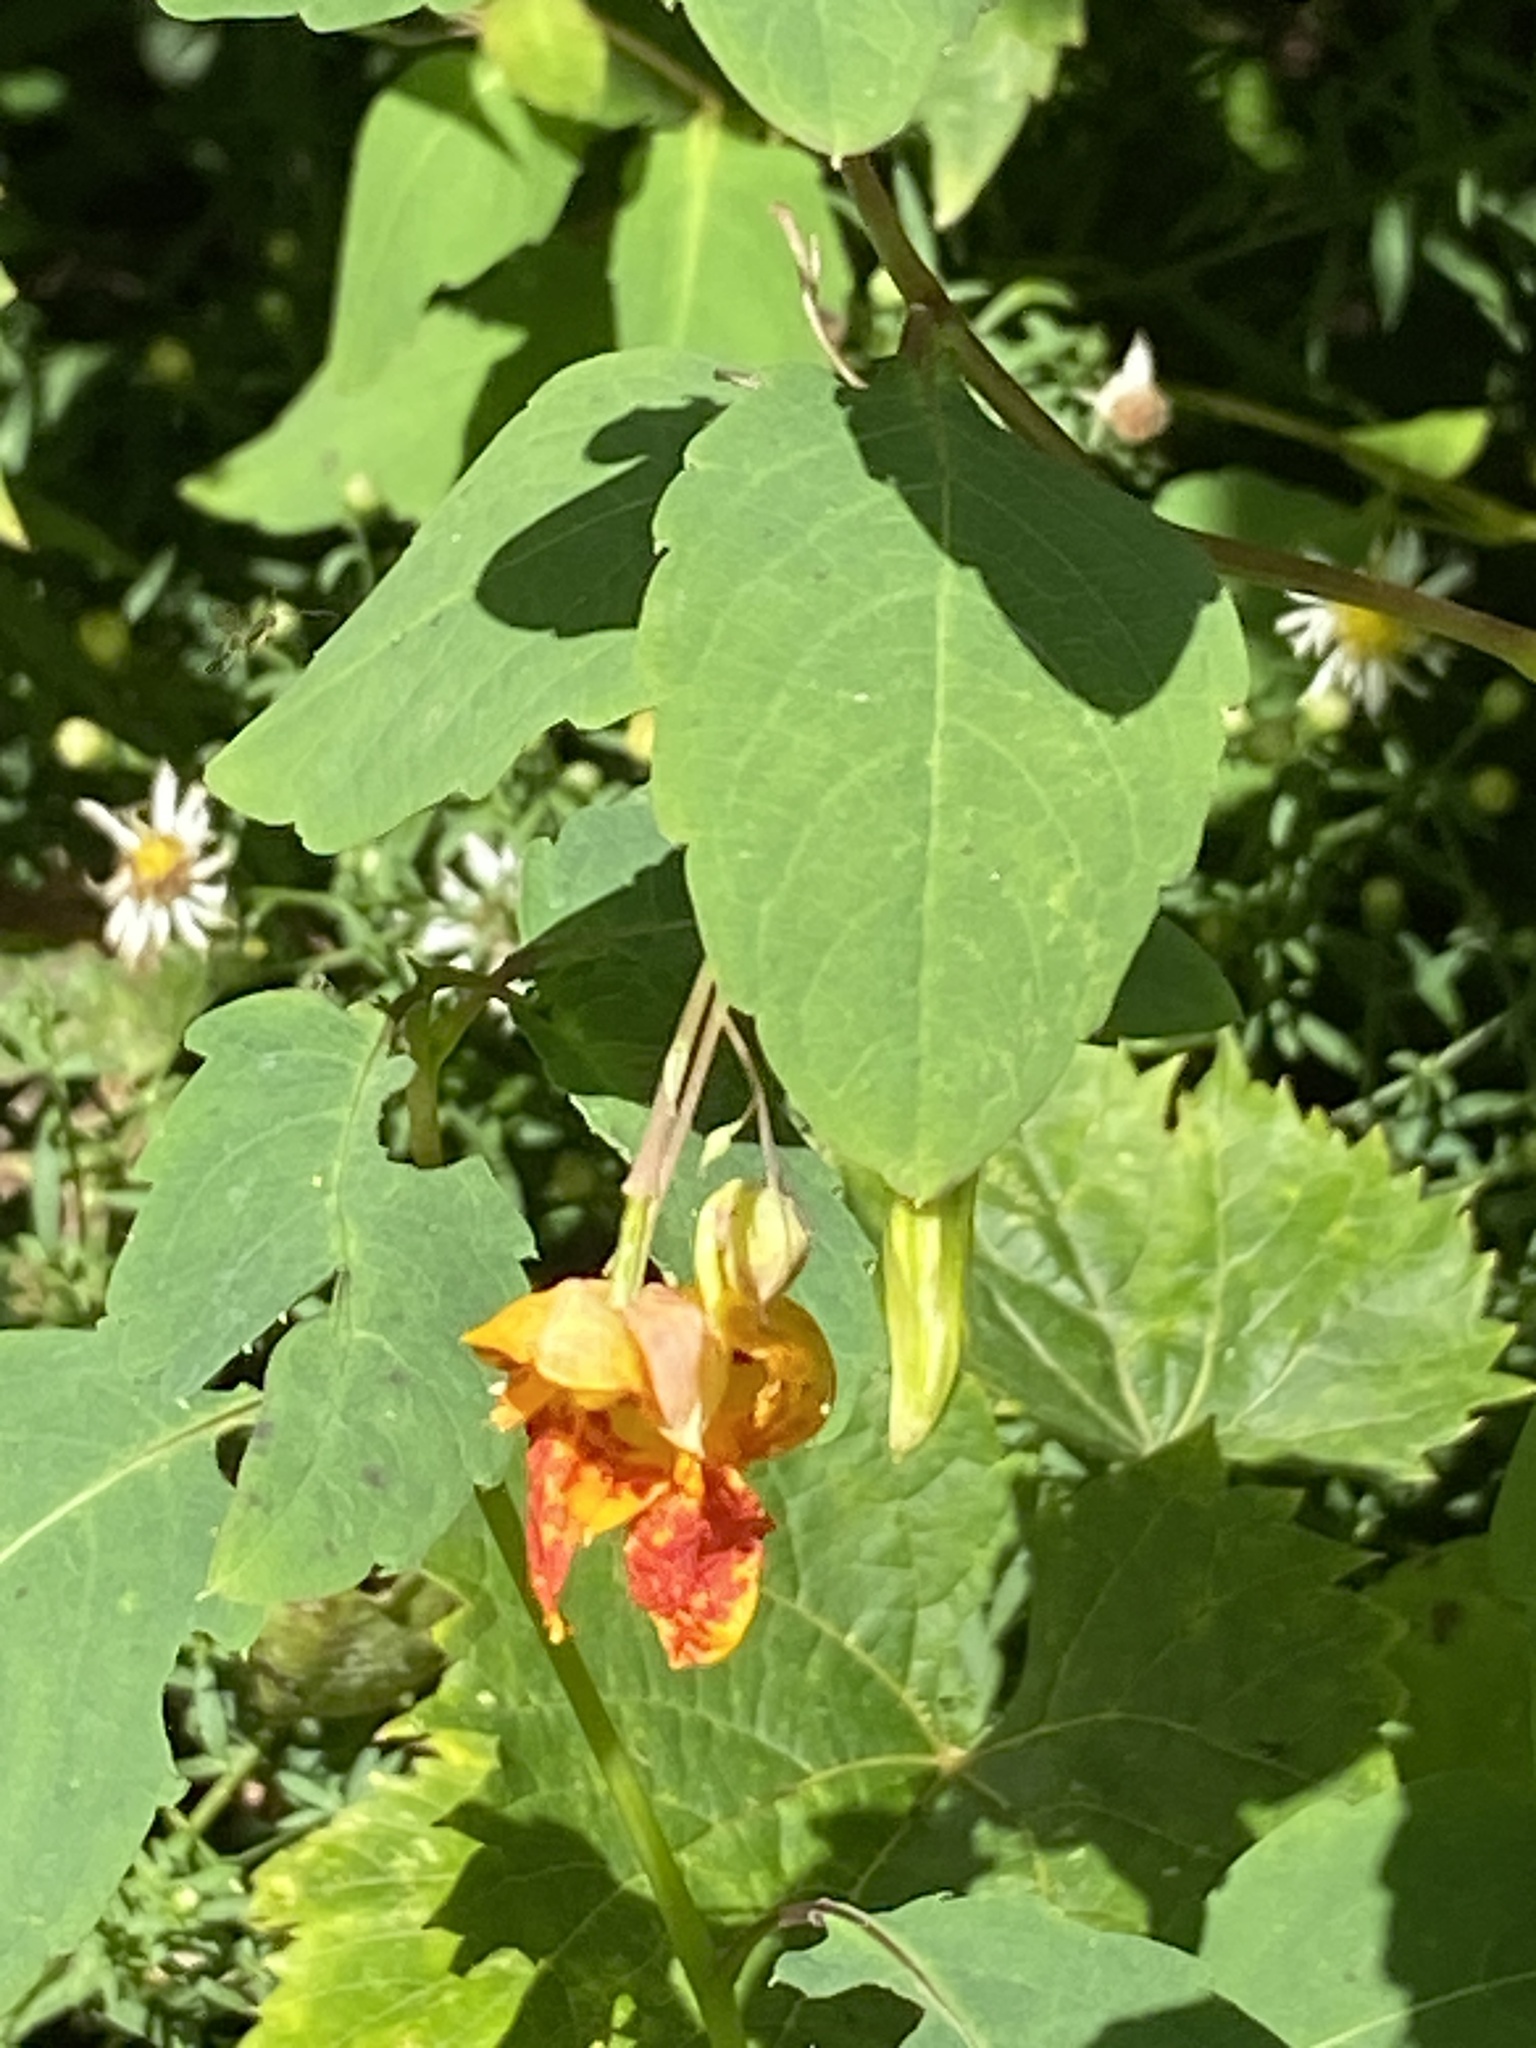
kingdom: Plantae
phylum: Tracheophyta
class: Magnoliopsida
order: Ericales
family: Balsaminaceae
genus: Impatiens
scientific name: Impatiens capensis
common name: Orange balsam
